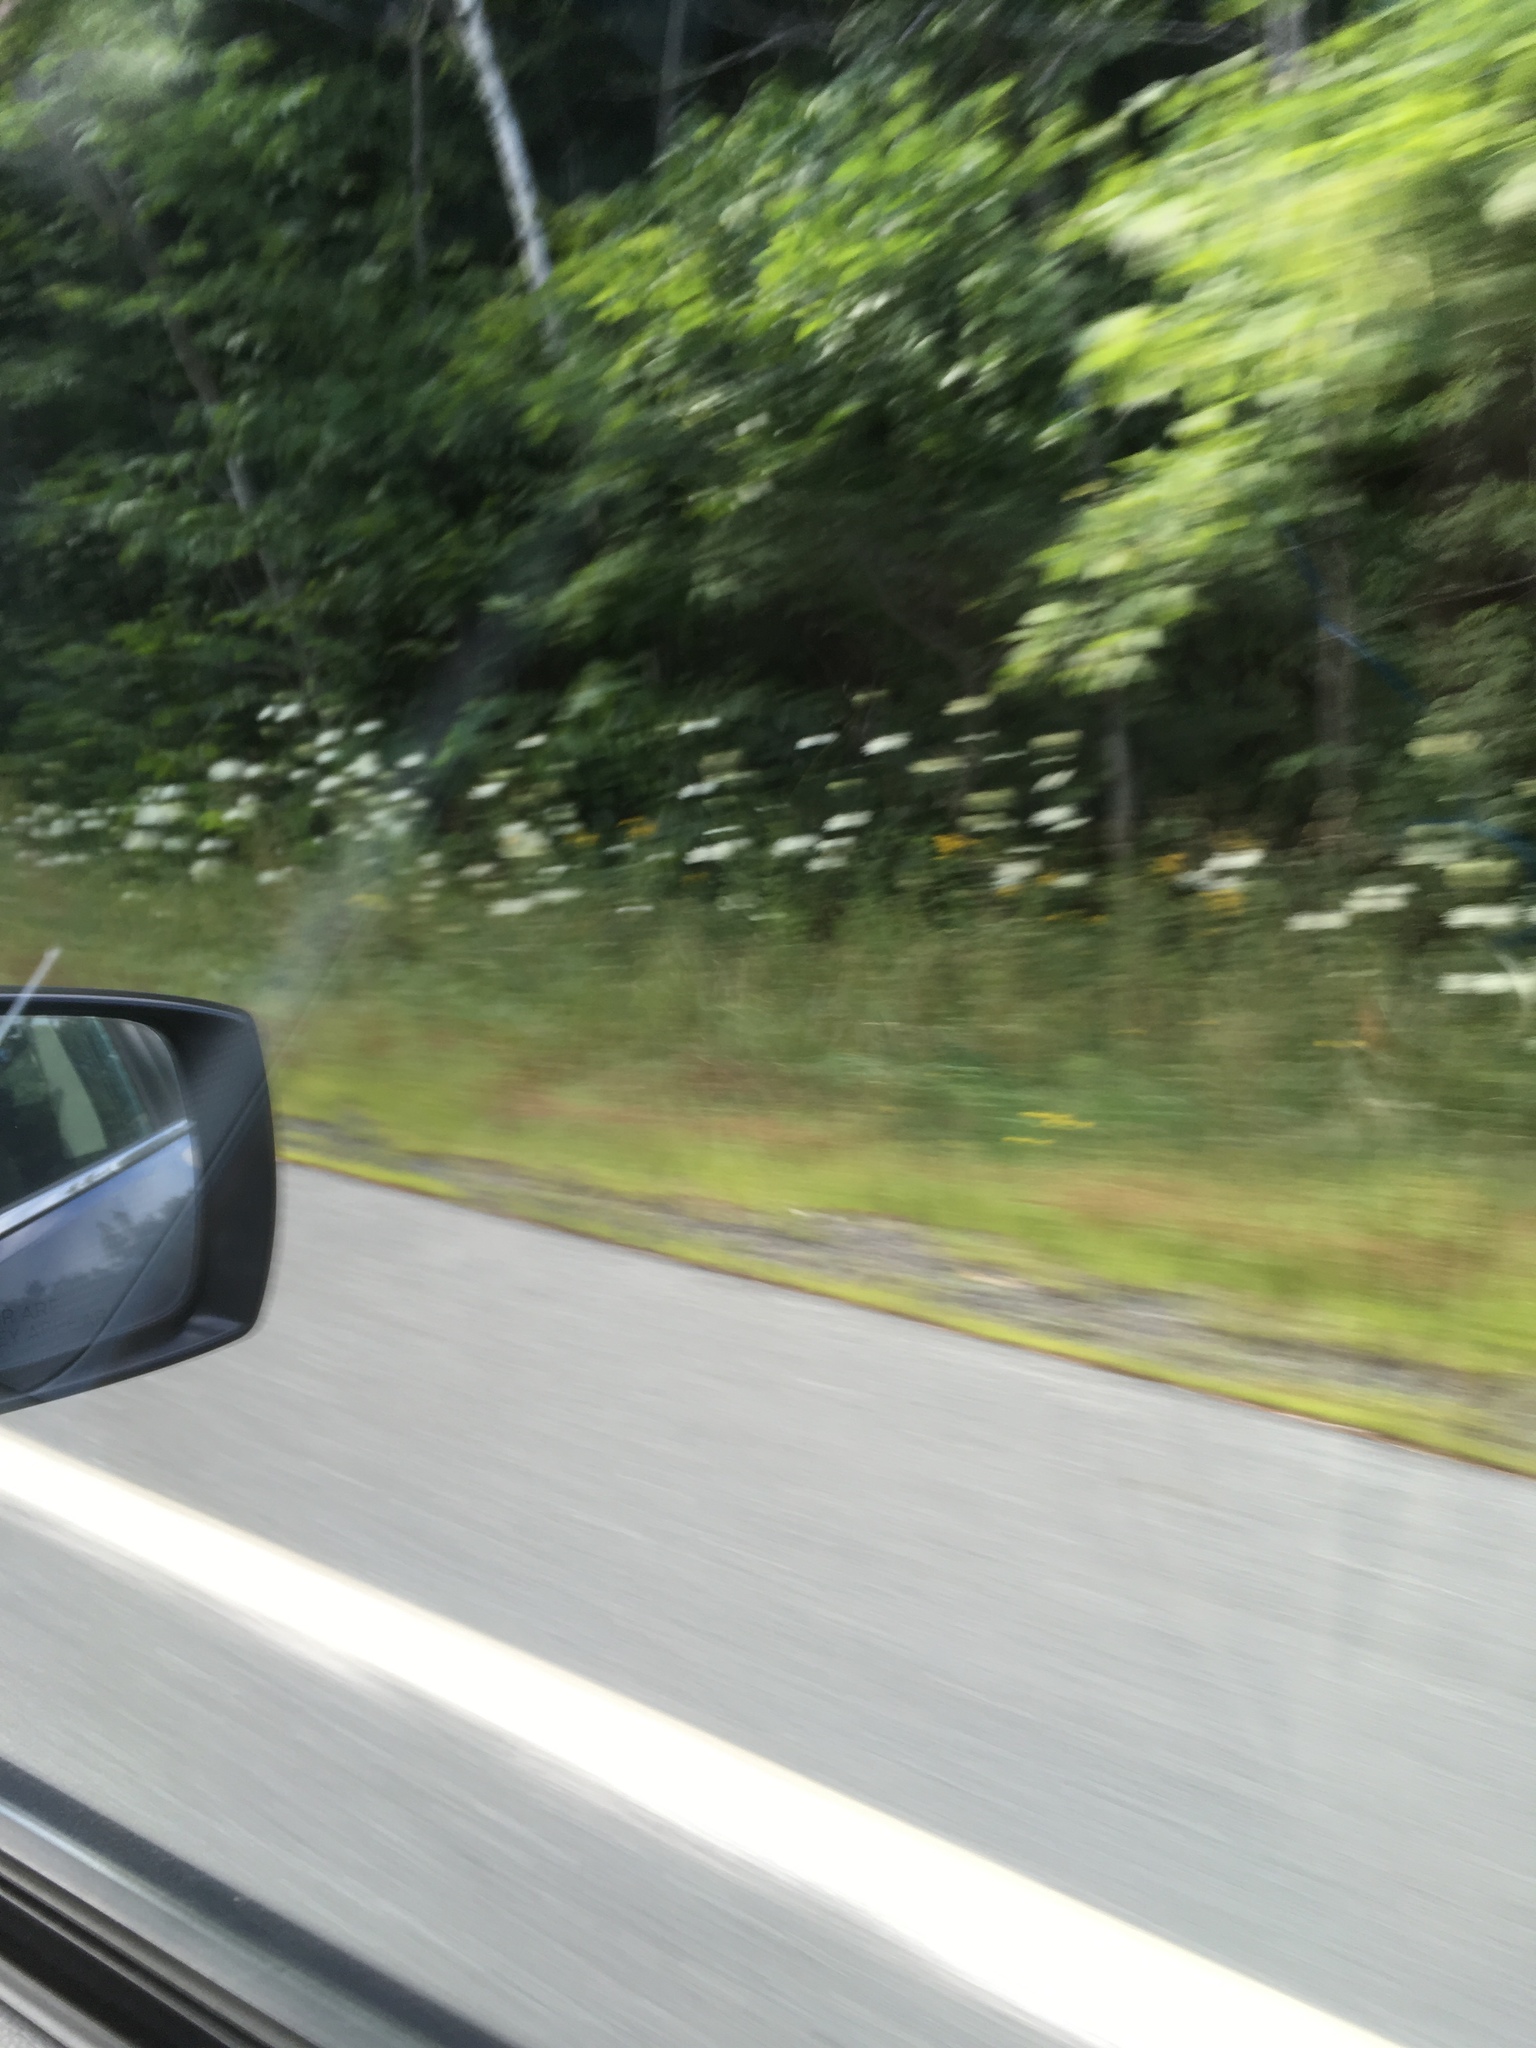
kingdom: Plantae
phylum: Tracheophyta
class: Magnoliopsida
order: Apiales
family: Apiaceae
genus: Daucus
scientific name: Daucus carota
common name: Wild carrot
